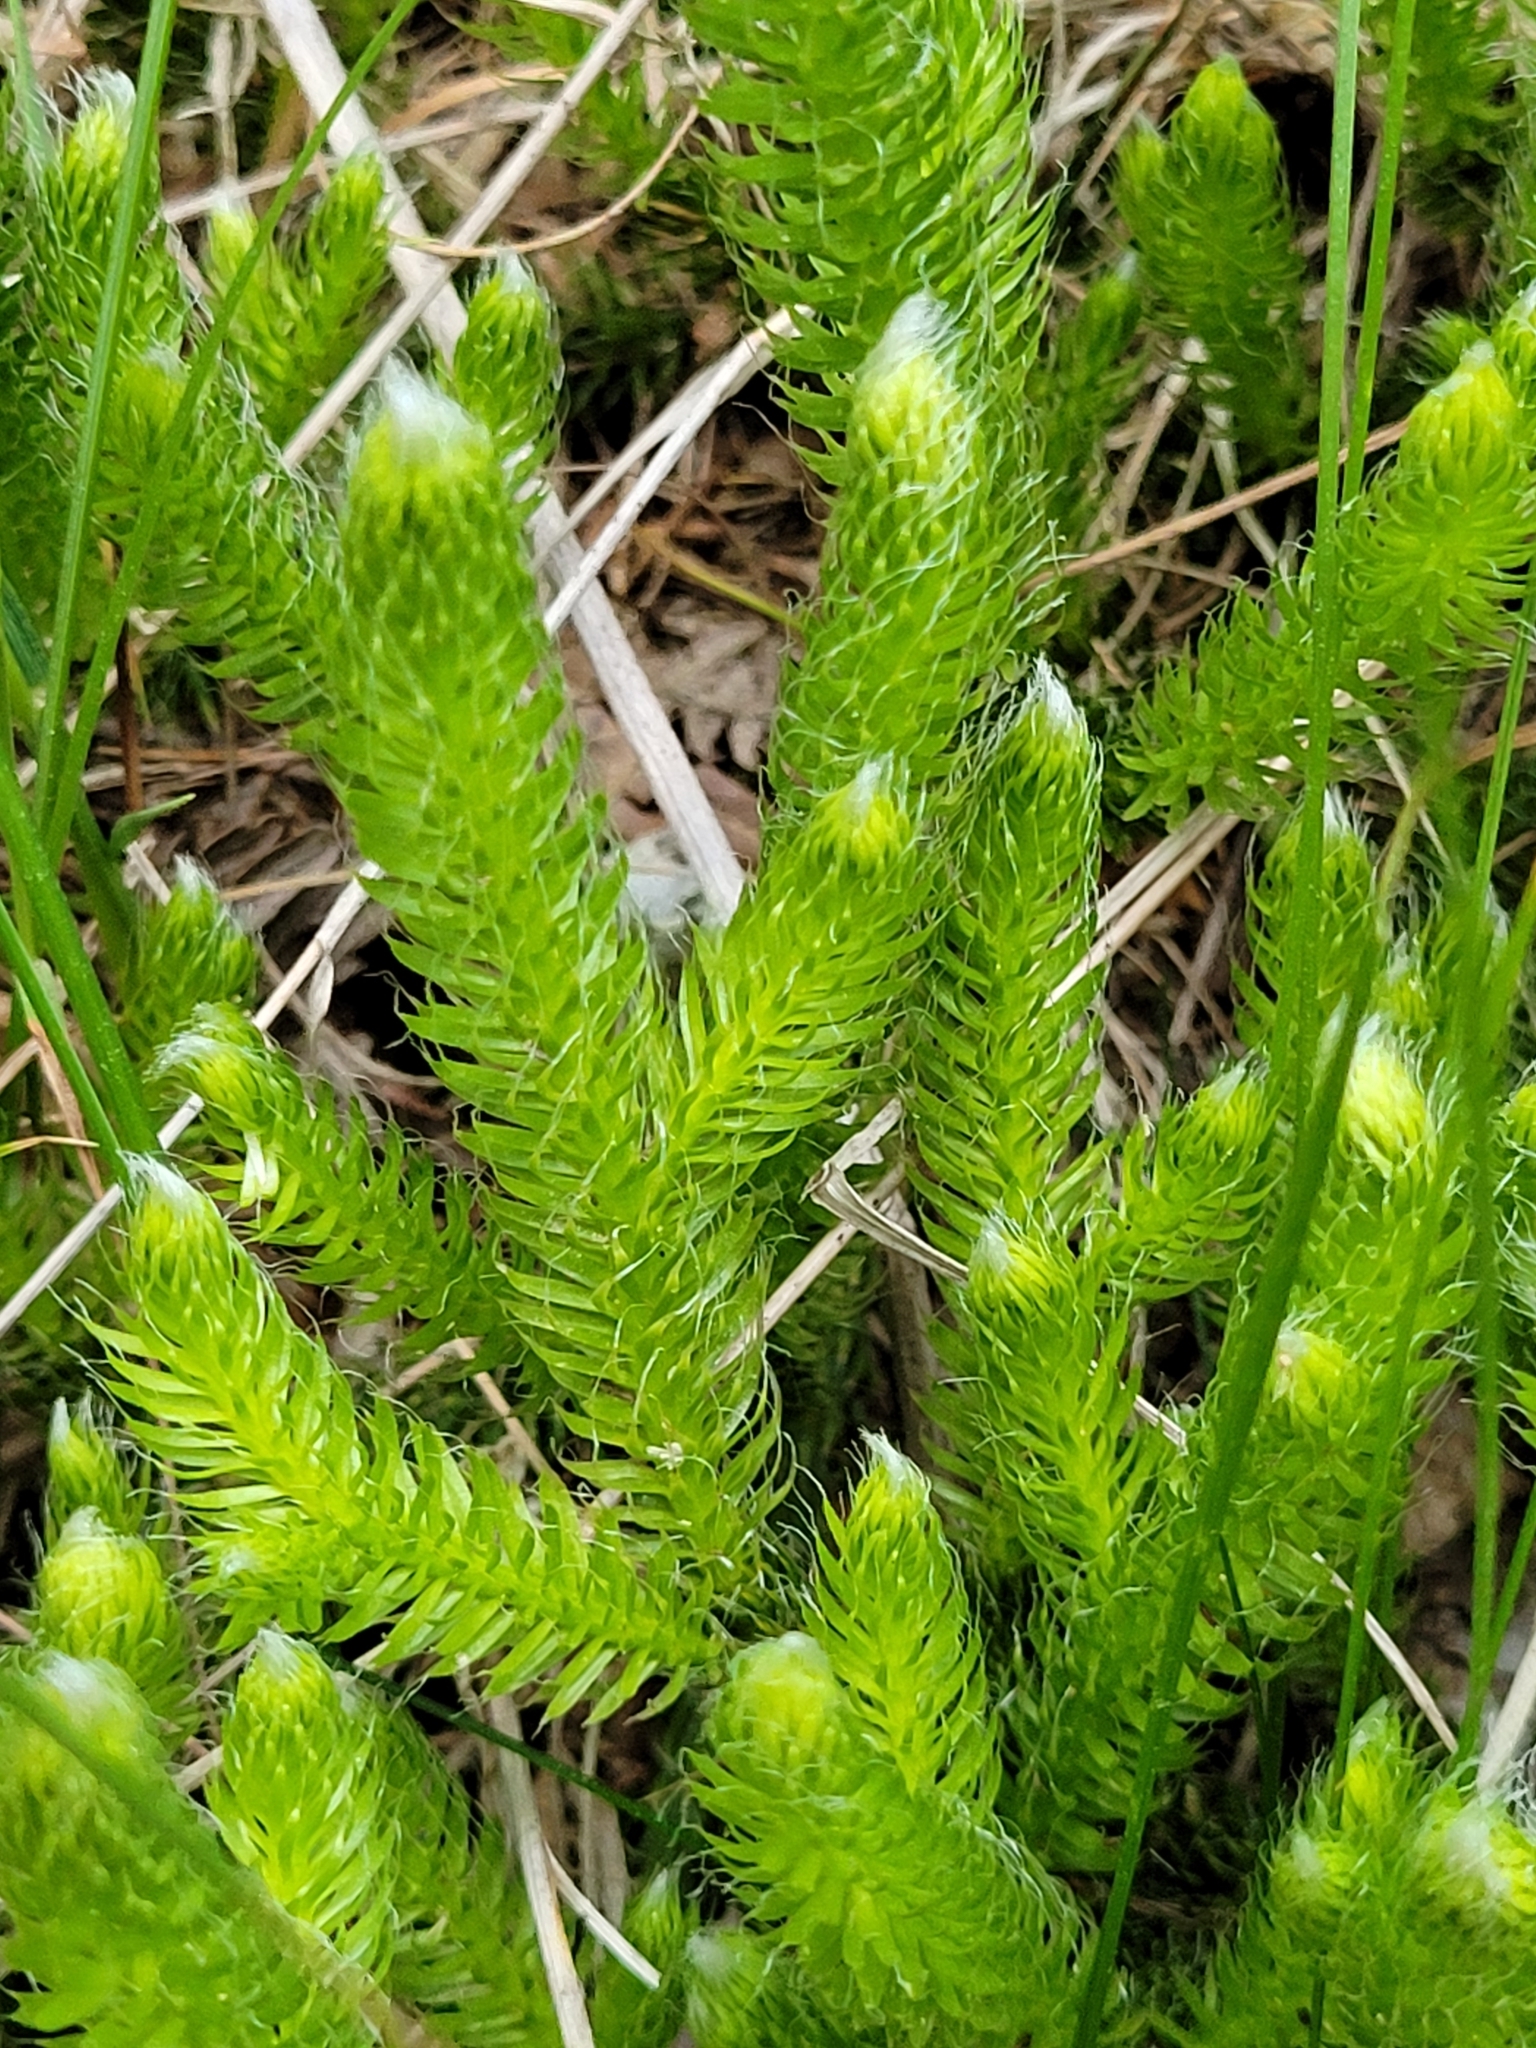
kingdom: Plantae
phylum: Tracheophyta
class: Lycopodiopsida
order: Lycopodiales
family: Lycopodiaceae
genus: Lycopodium
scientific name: Lycopodium clavatum
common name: Stag's-horn clubmoss
